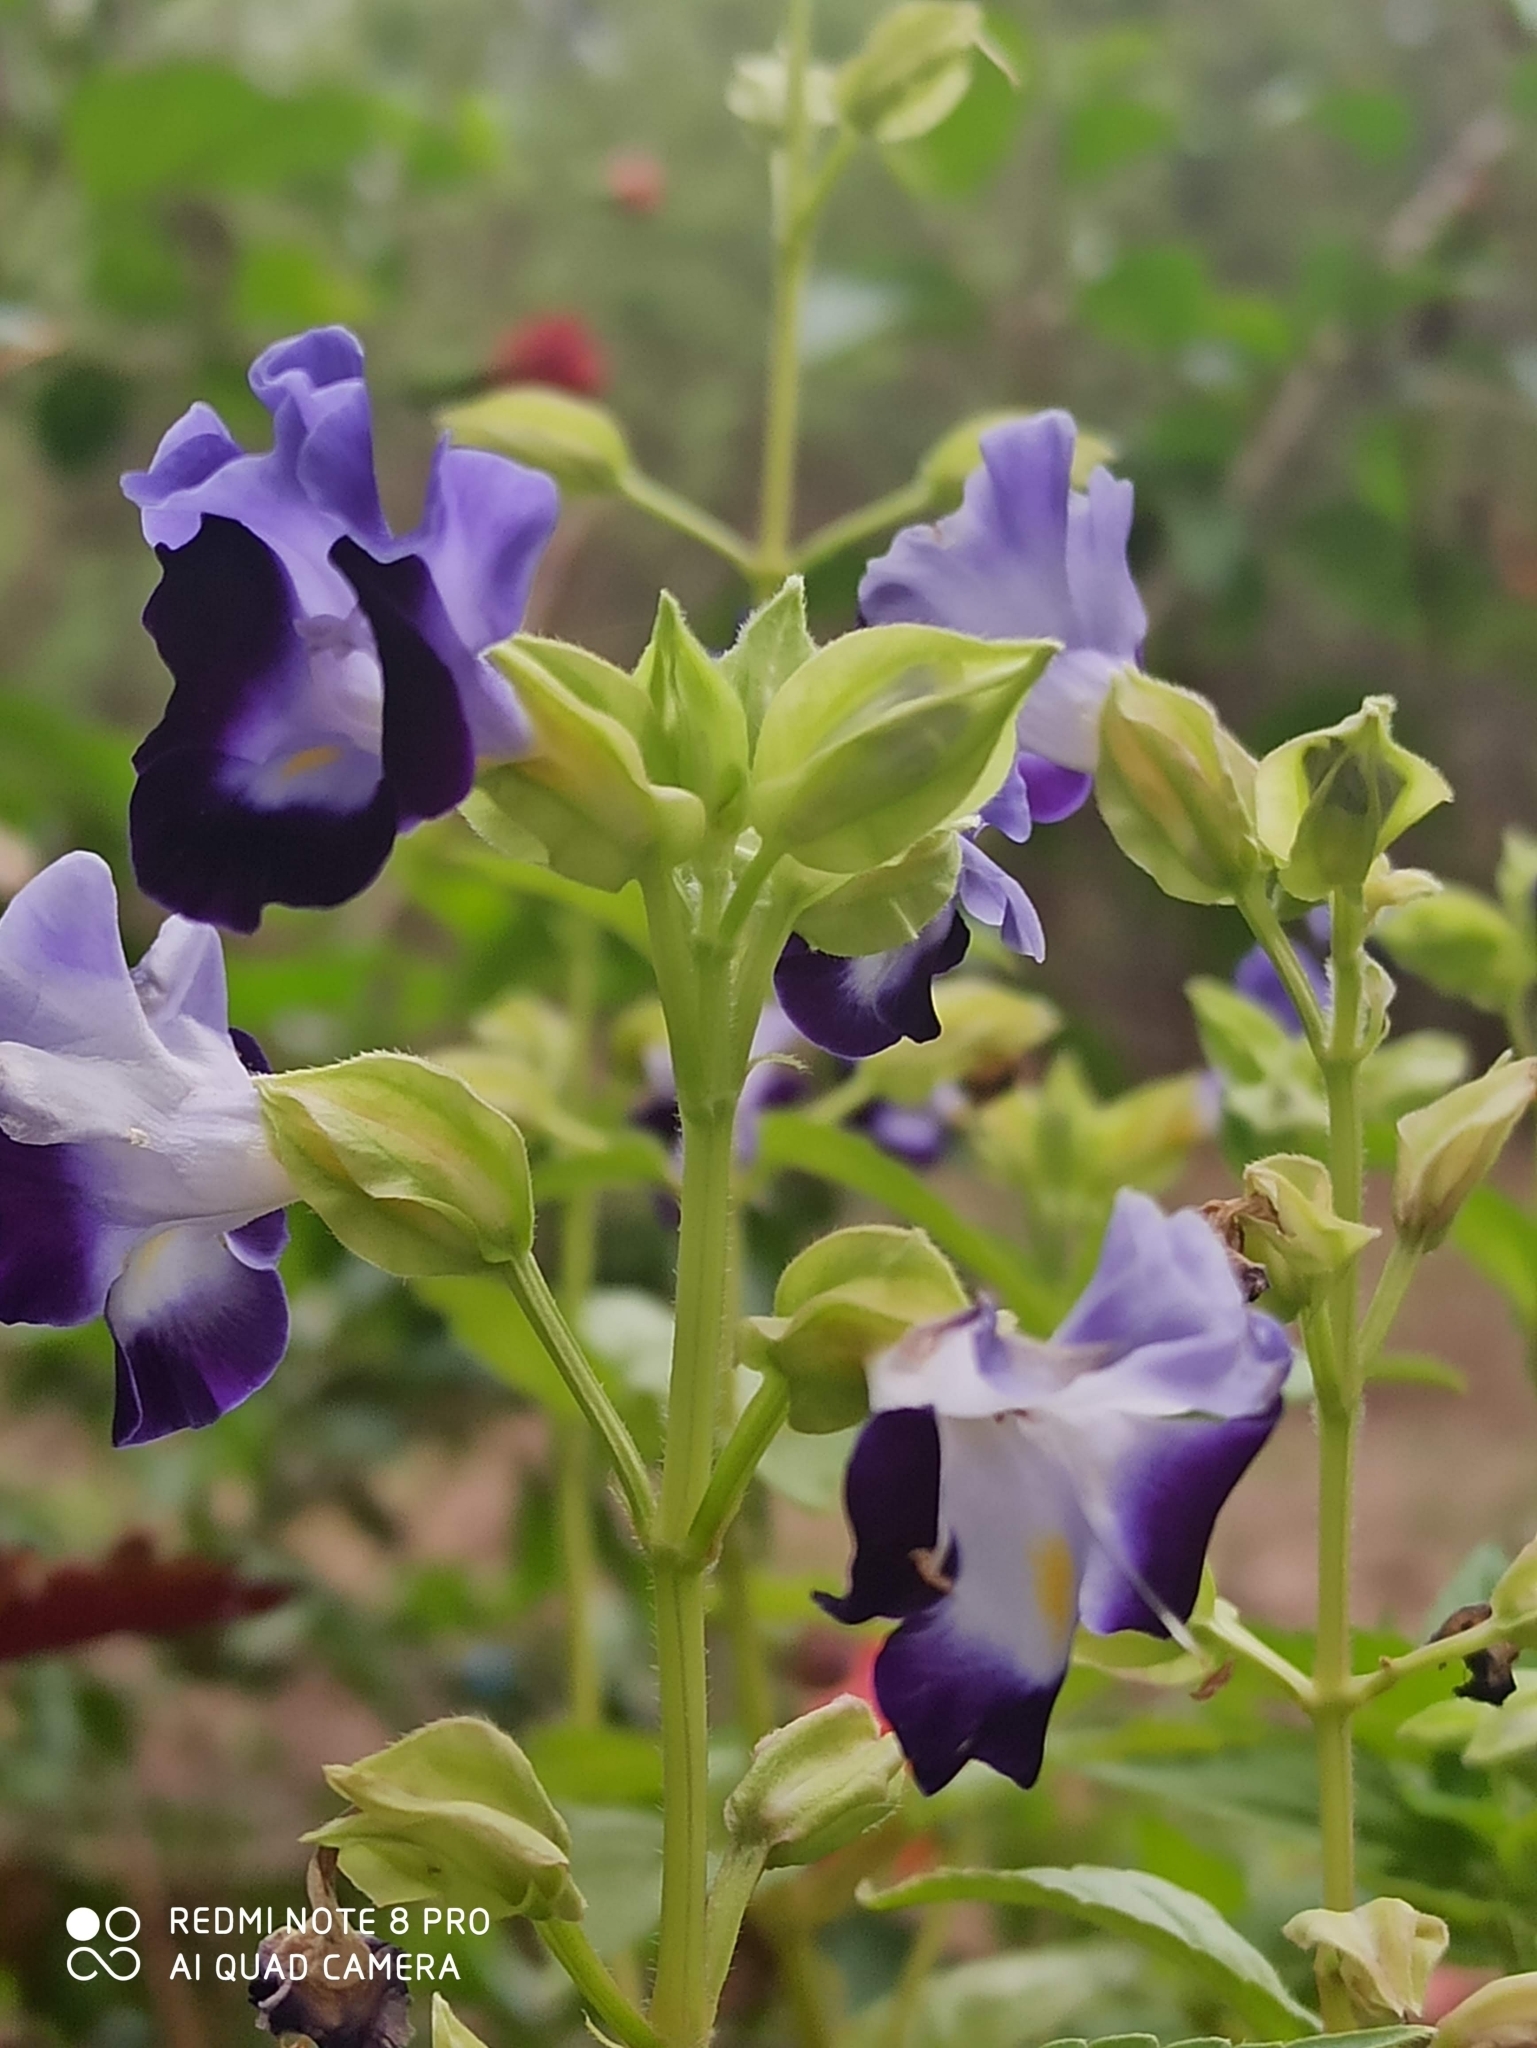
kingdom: Plantae
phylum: Tracheophyta
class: Magnoliopsida
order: Lamiales
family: Linderniaceae
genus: Torenia
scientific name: Torenia fournieri
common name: Bluewings
